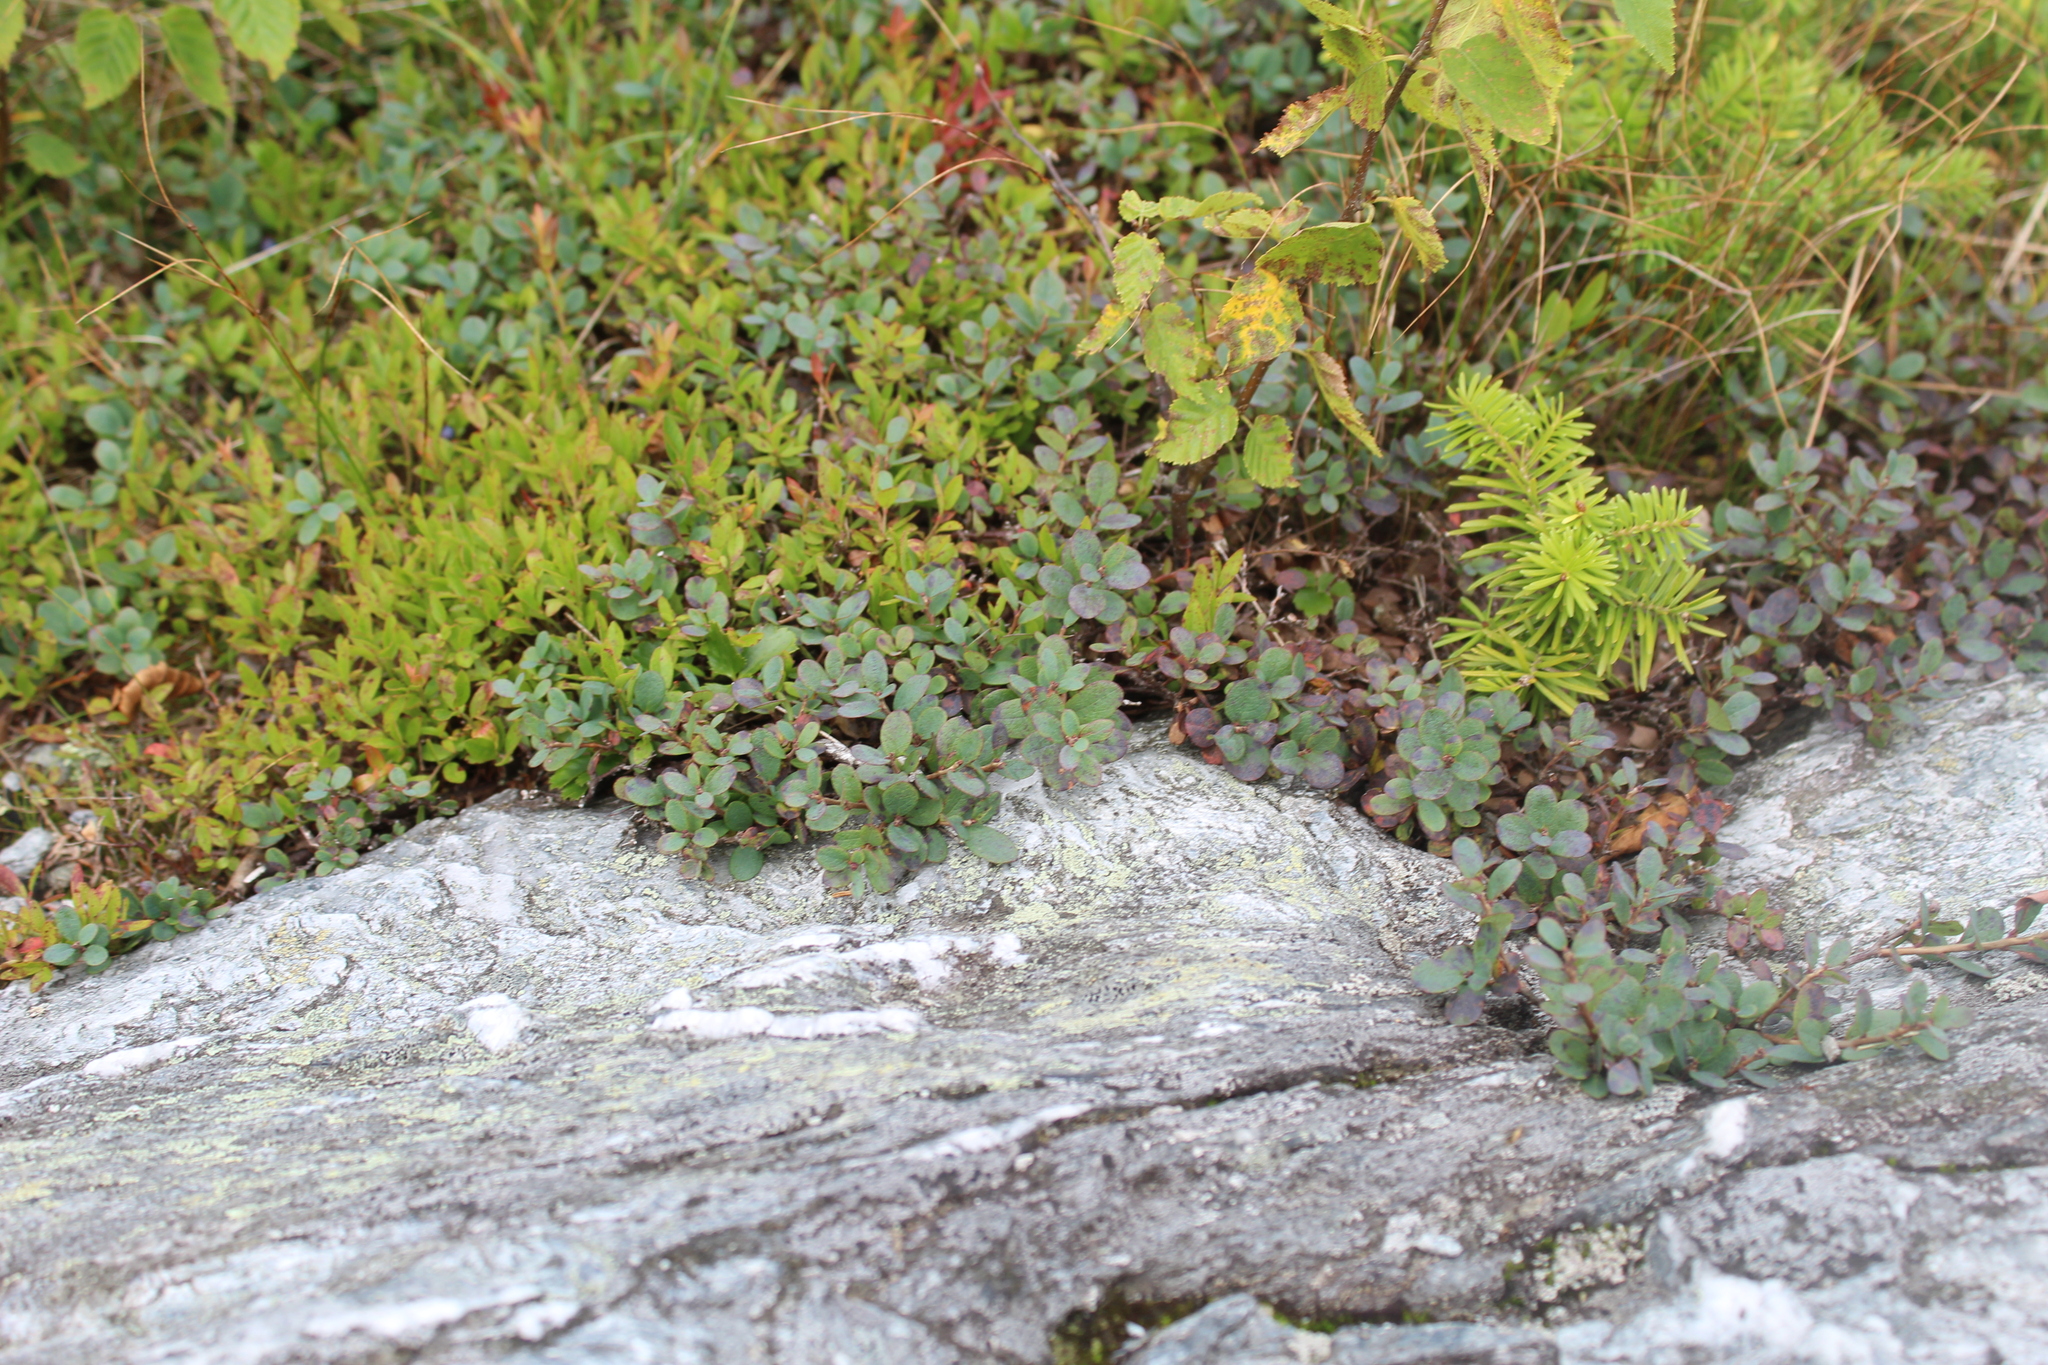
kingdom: Plantae
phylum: Tracheophyta
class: Magnoliopsida
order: Ericales
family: Ericaceae
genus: Vaccinium
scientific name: Vaccinium uliginosum
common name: Bog bilberry
